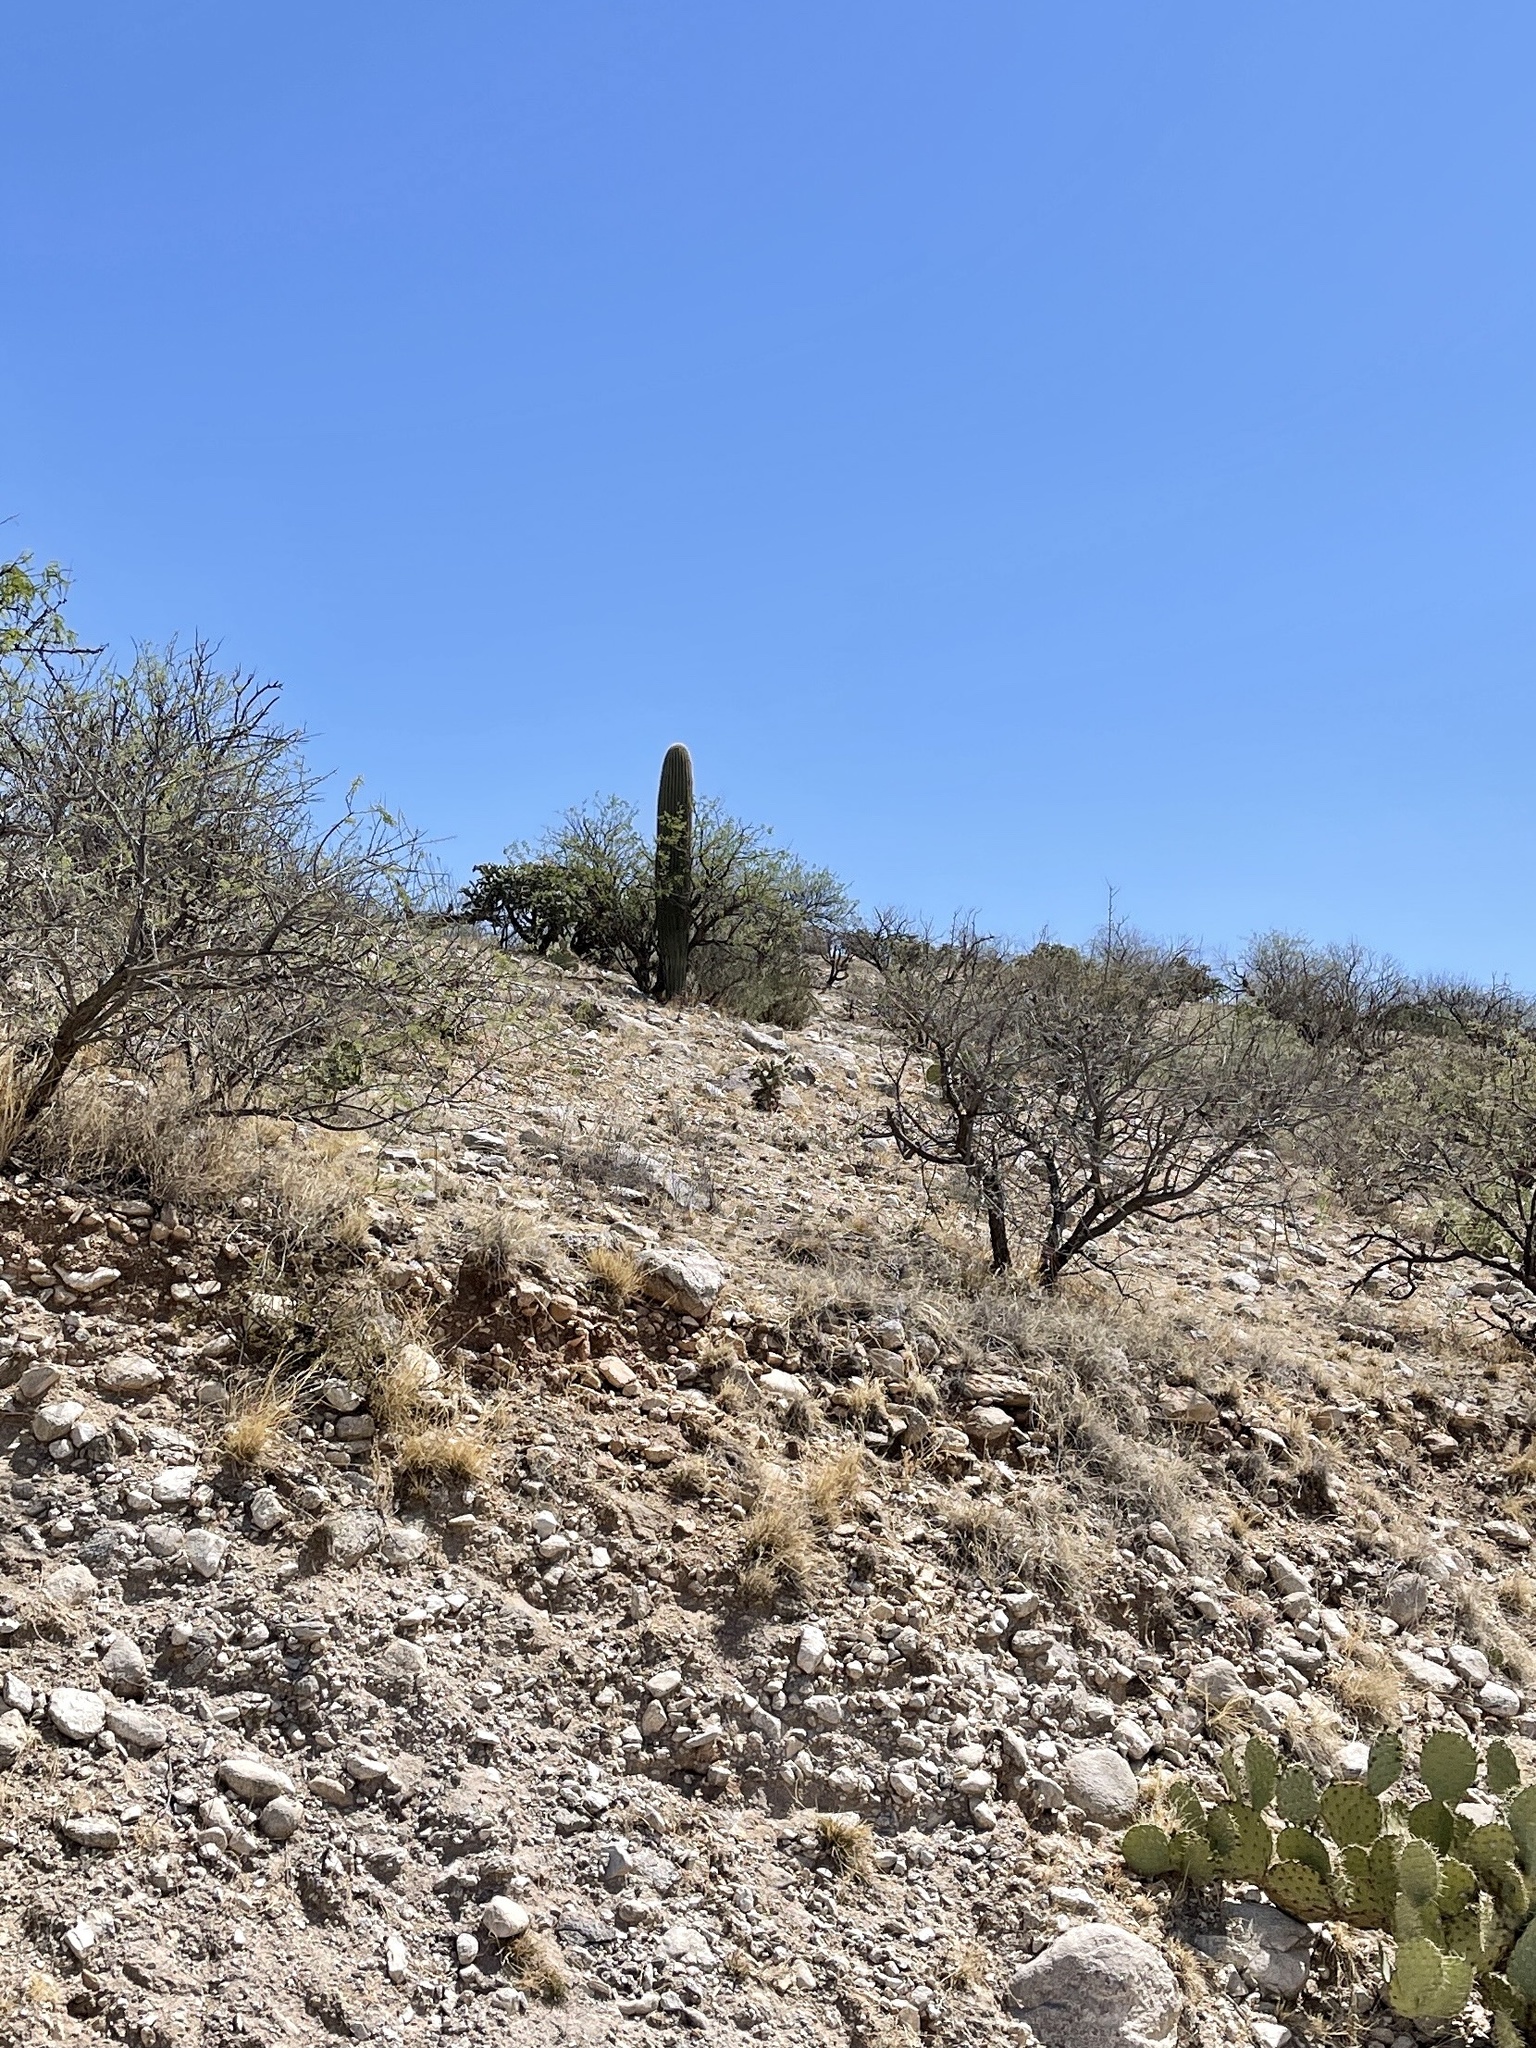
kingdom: Plantae
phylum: Tracheophyta
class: Magnoliopsida
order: Caryophyllales
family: Cactaceae
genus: Carnegiea
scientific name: Carnegiea gigantea
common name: Saguaro
